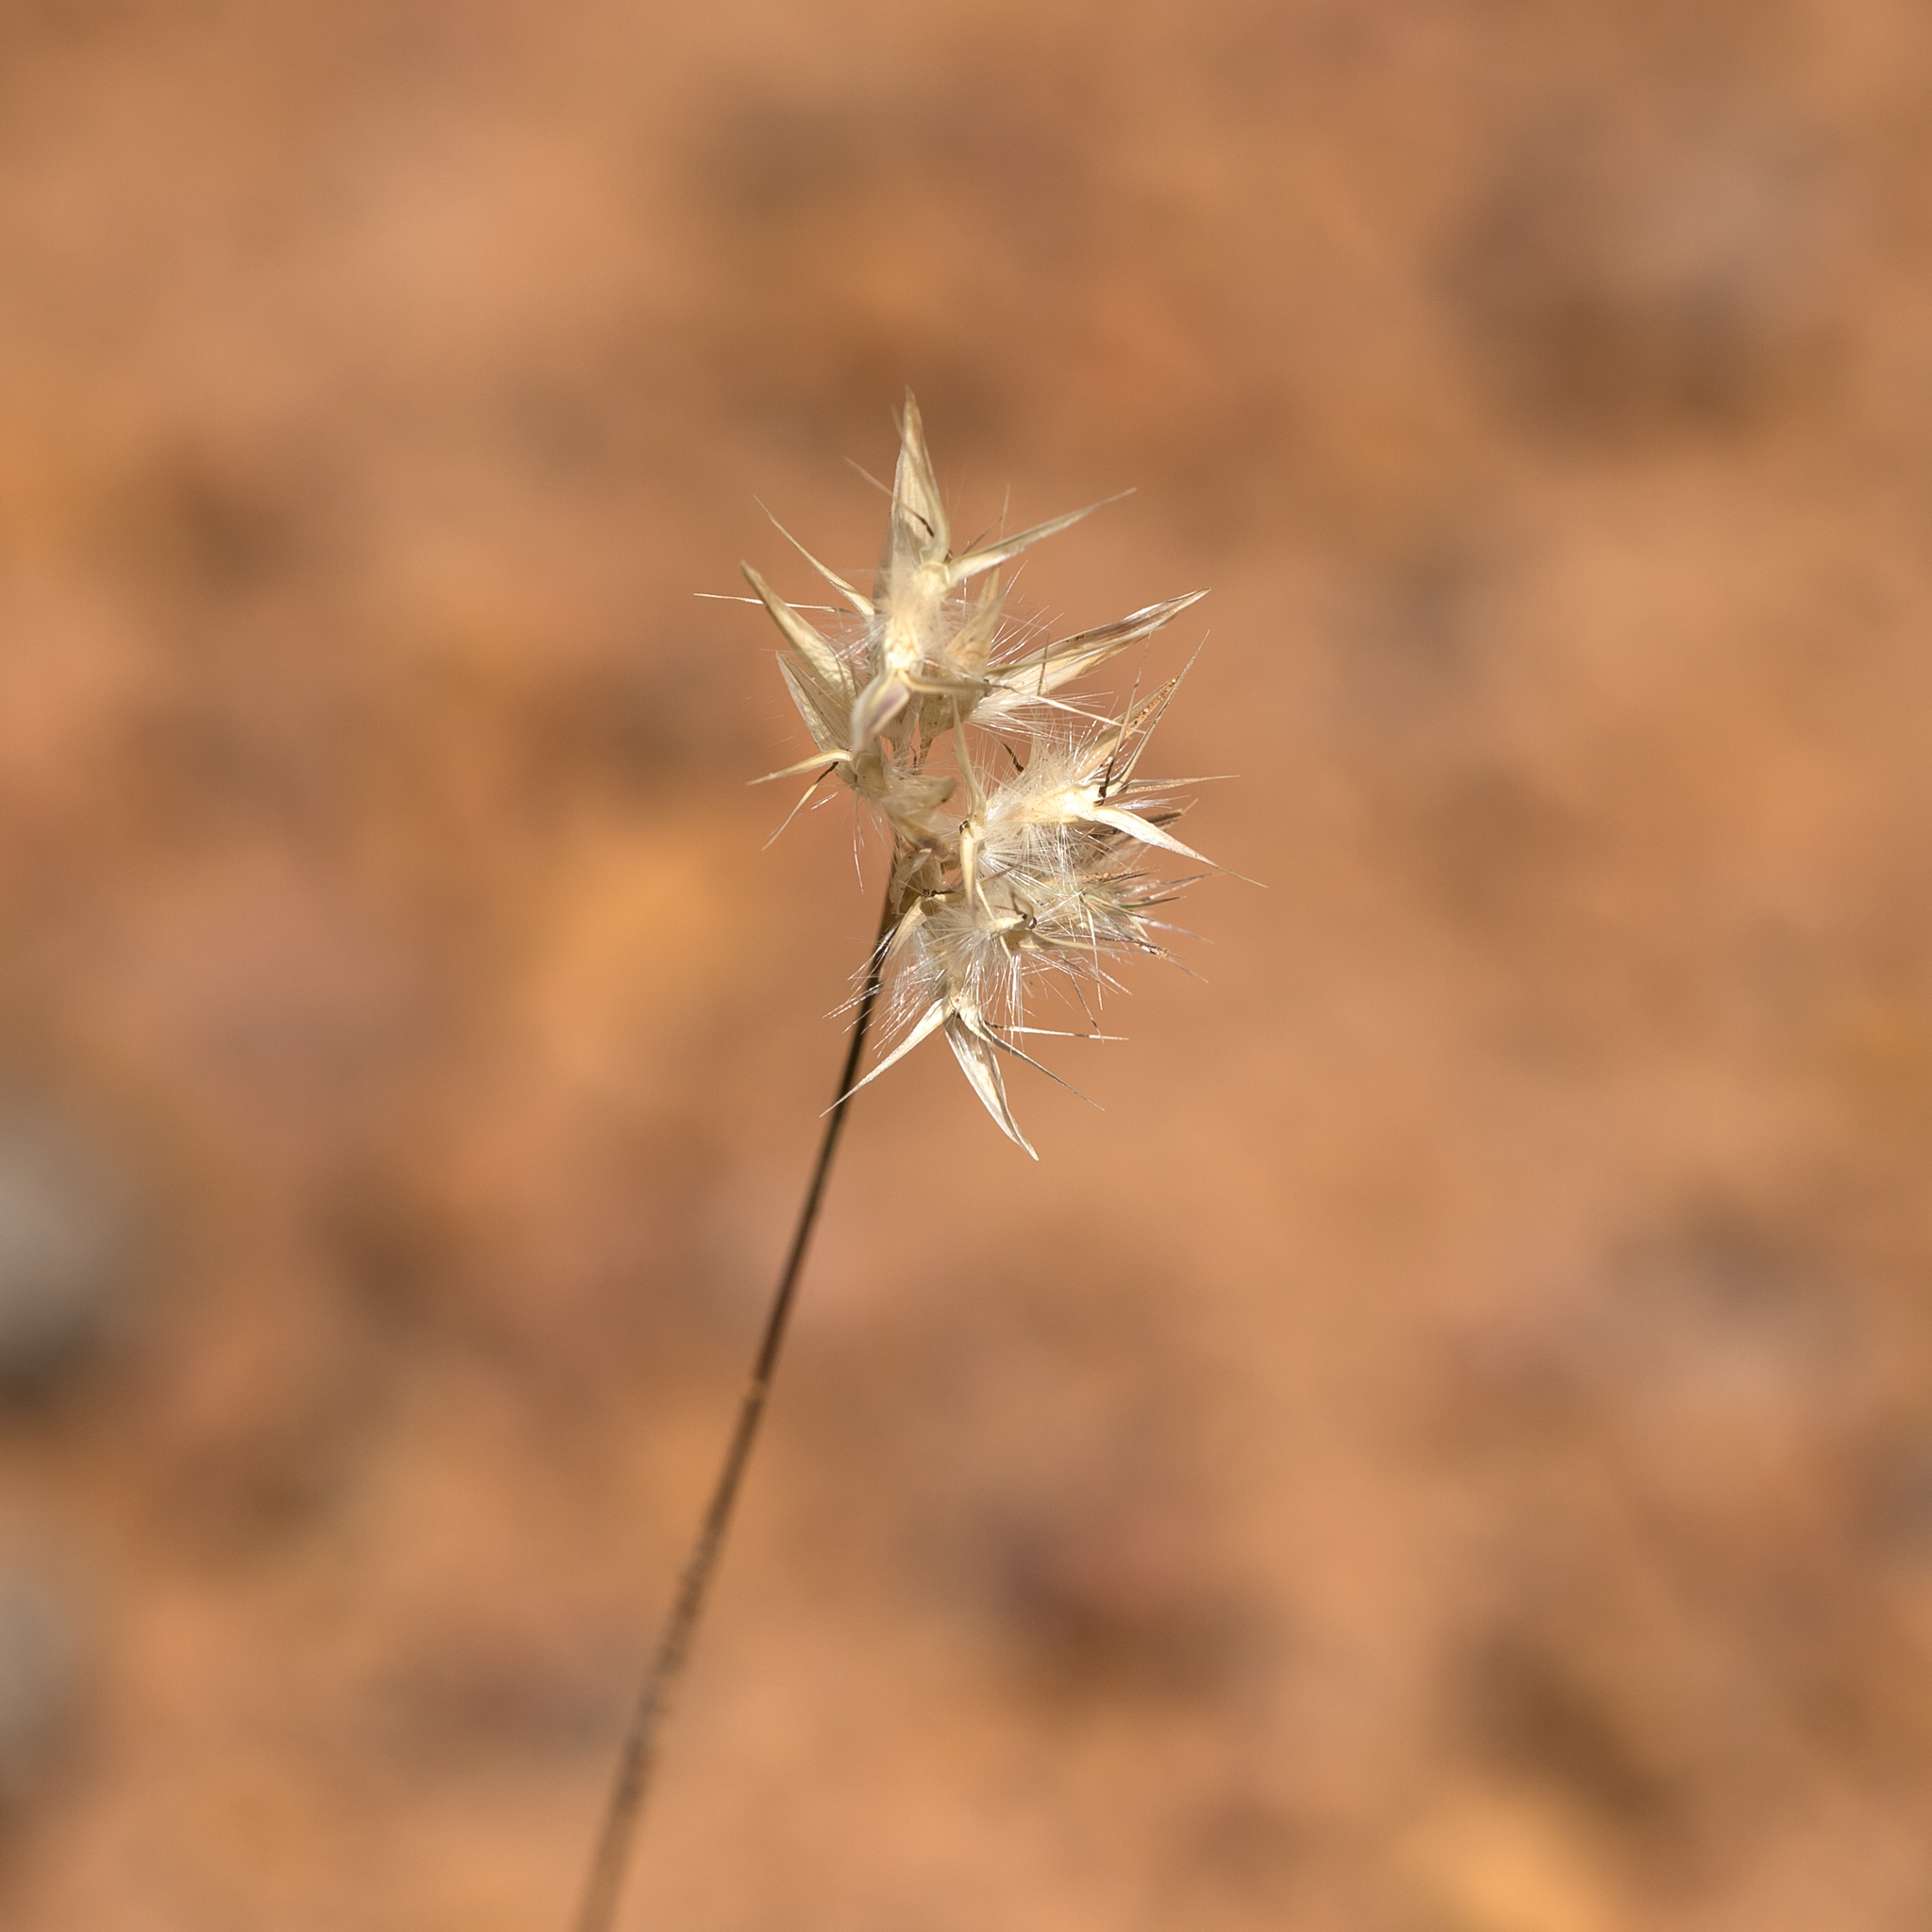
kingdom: Plantae
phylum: Tracheophyta
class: Liliopsida
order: Poales
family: Poaceae
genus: Rytidosperma
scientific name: Rytidosperma geniculatum
